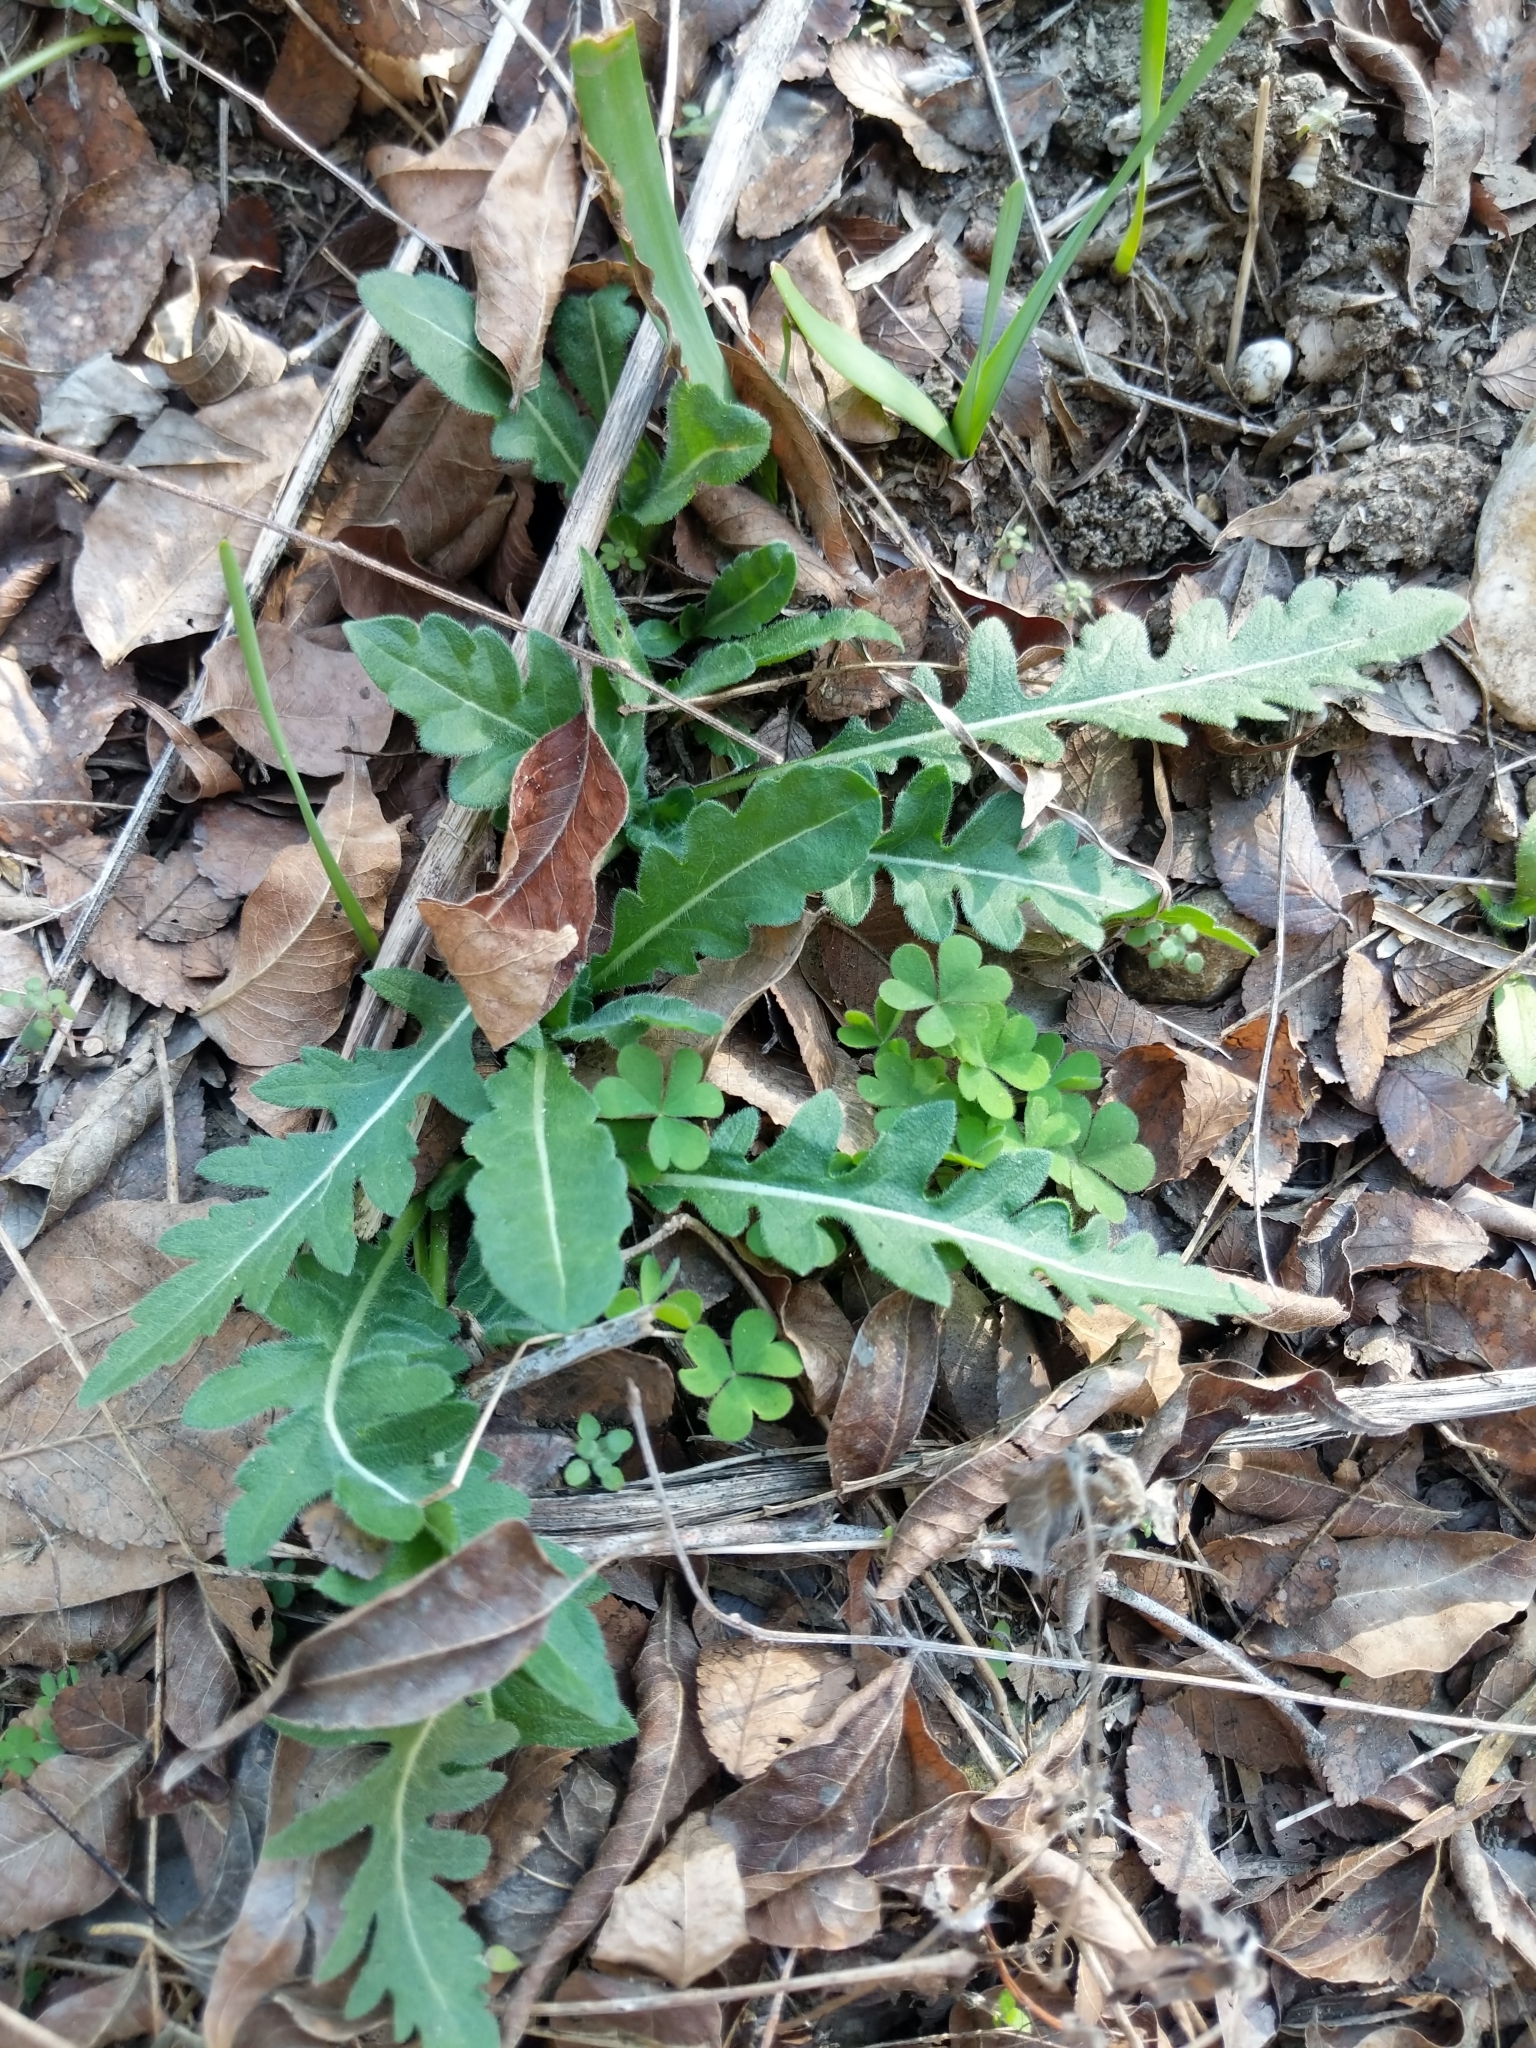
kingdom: Plantae
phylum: Tracheophyta
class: Magnoliopsida
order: Asterales
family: Asteraceae
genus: Engelmannia
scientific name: Engelmannia peristenia
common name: Engelmann's daisy
